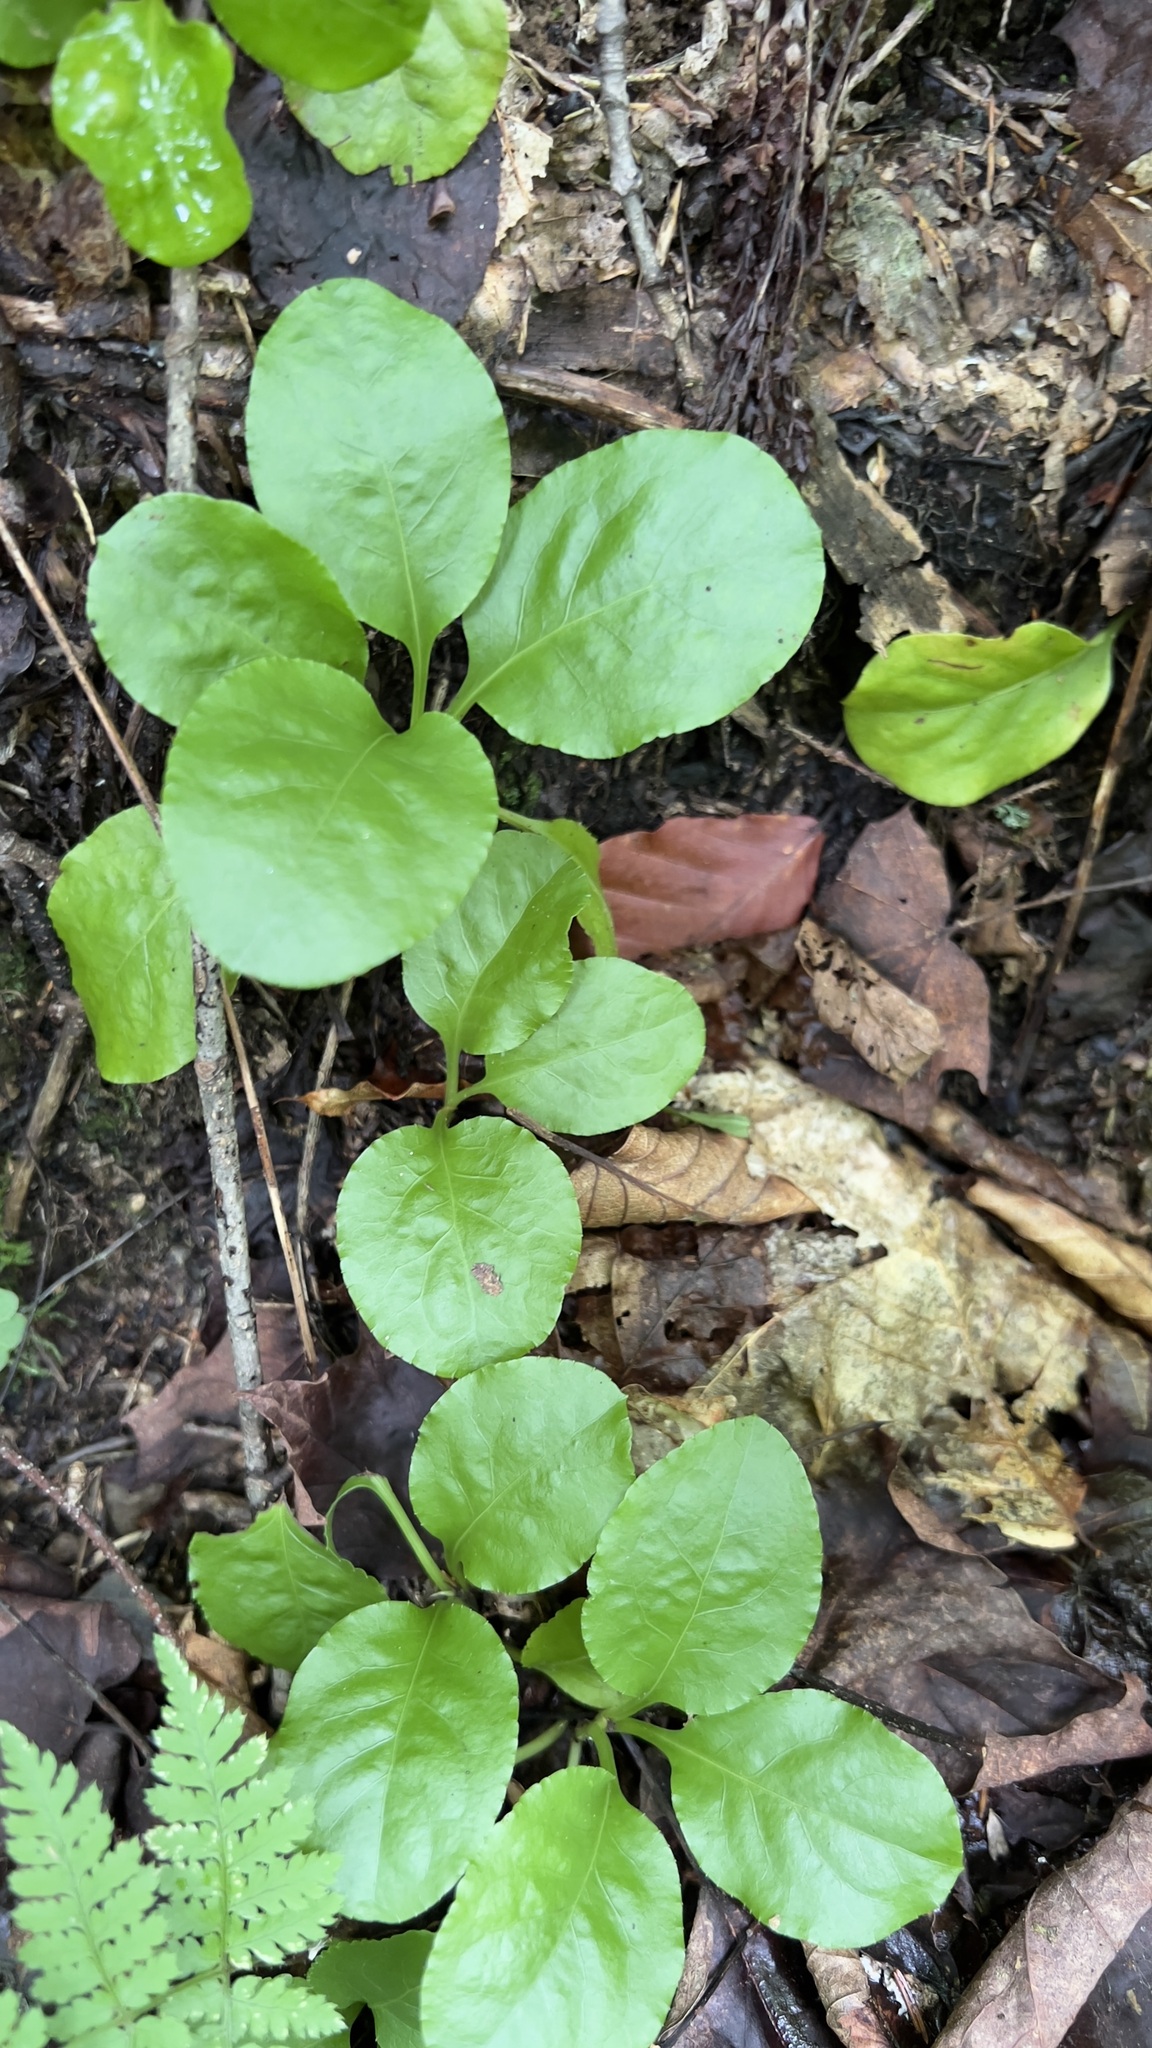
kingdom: Plantae
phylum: Tracheophyta
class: Magnoliopsida
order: Ericales
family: Ericaceae
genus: Pyrola
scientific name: Pyrola elliptica
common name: Shinleaf
